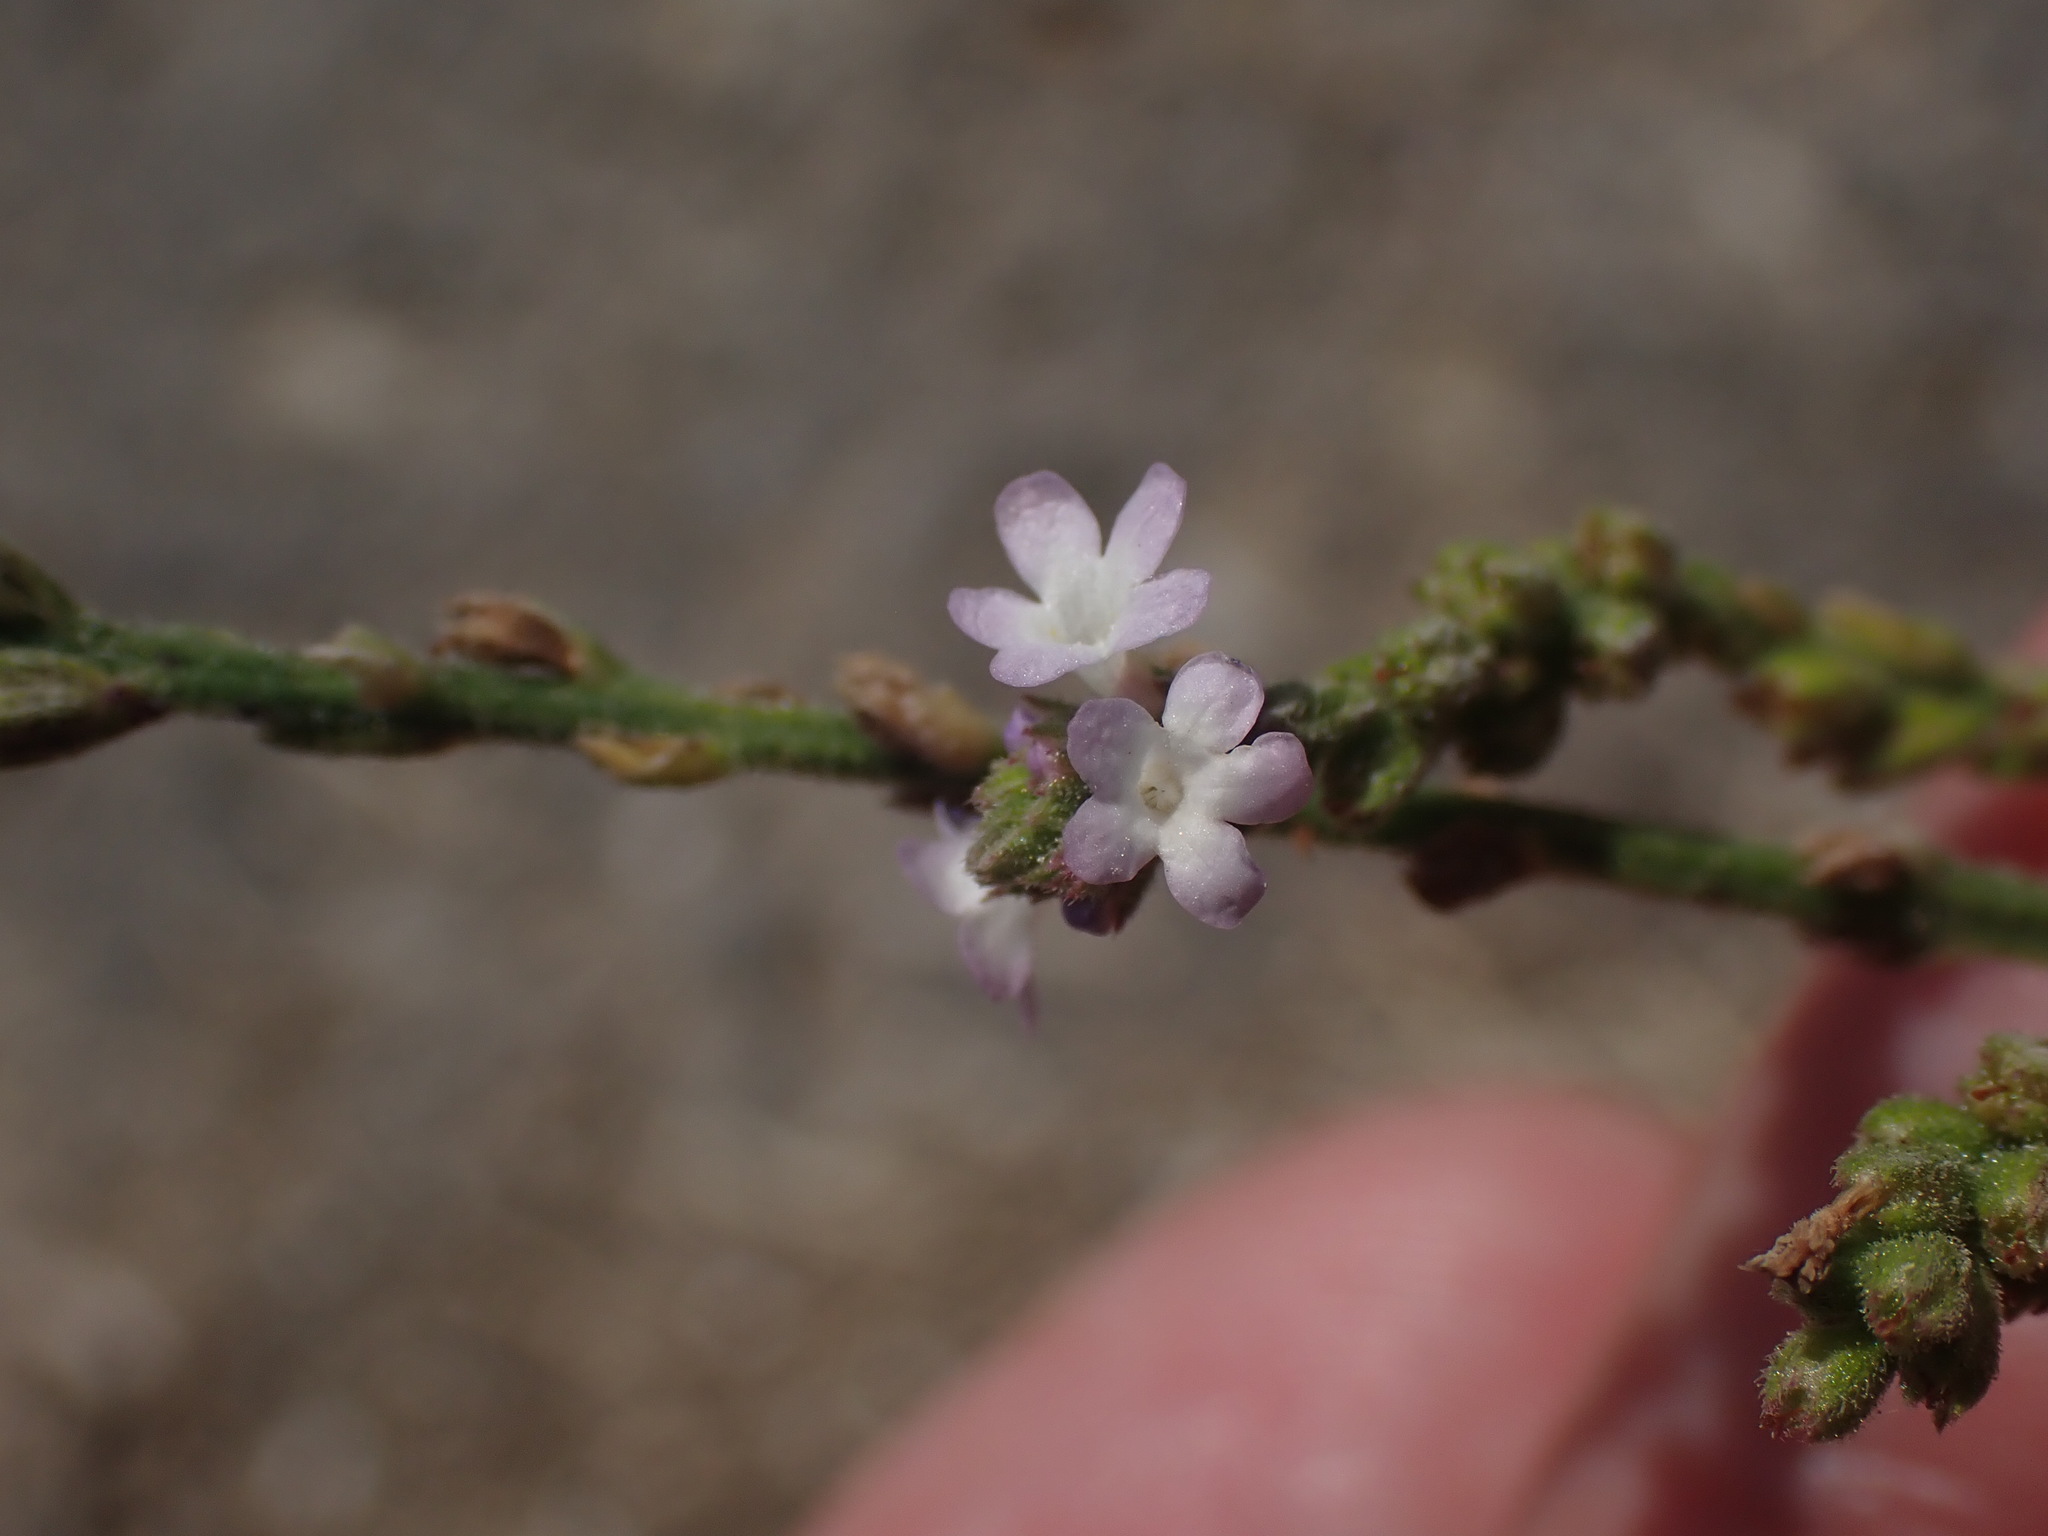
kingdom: Plantae
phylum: Tracheophyta
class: Magnoliopsida
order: Lamiales
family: Verbenaceae
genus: Verbena
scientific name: Verbena officinalis
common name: Vervain
